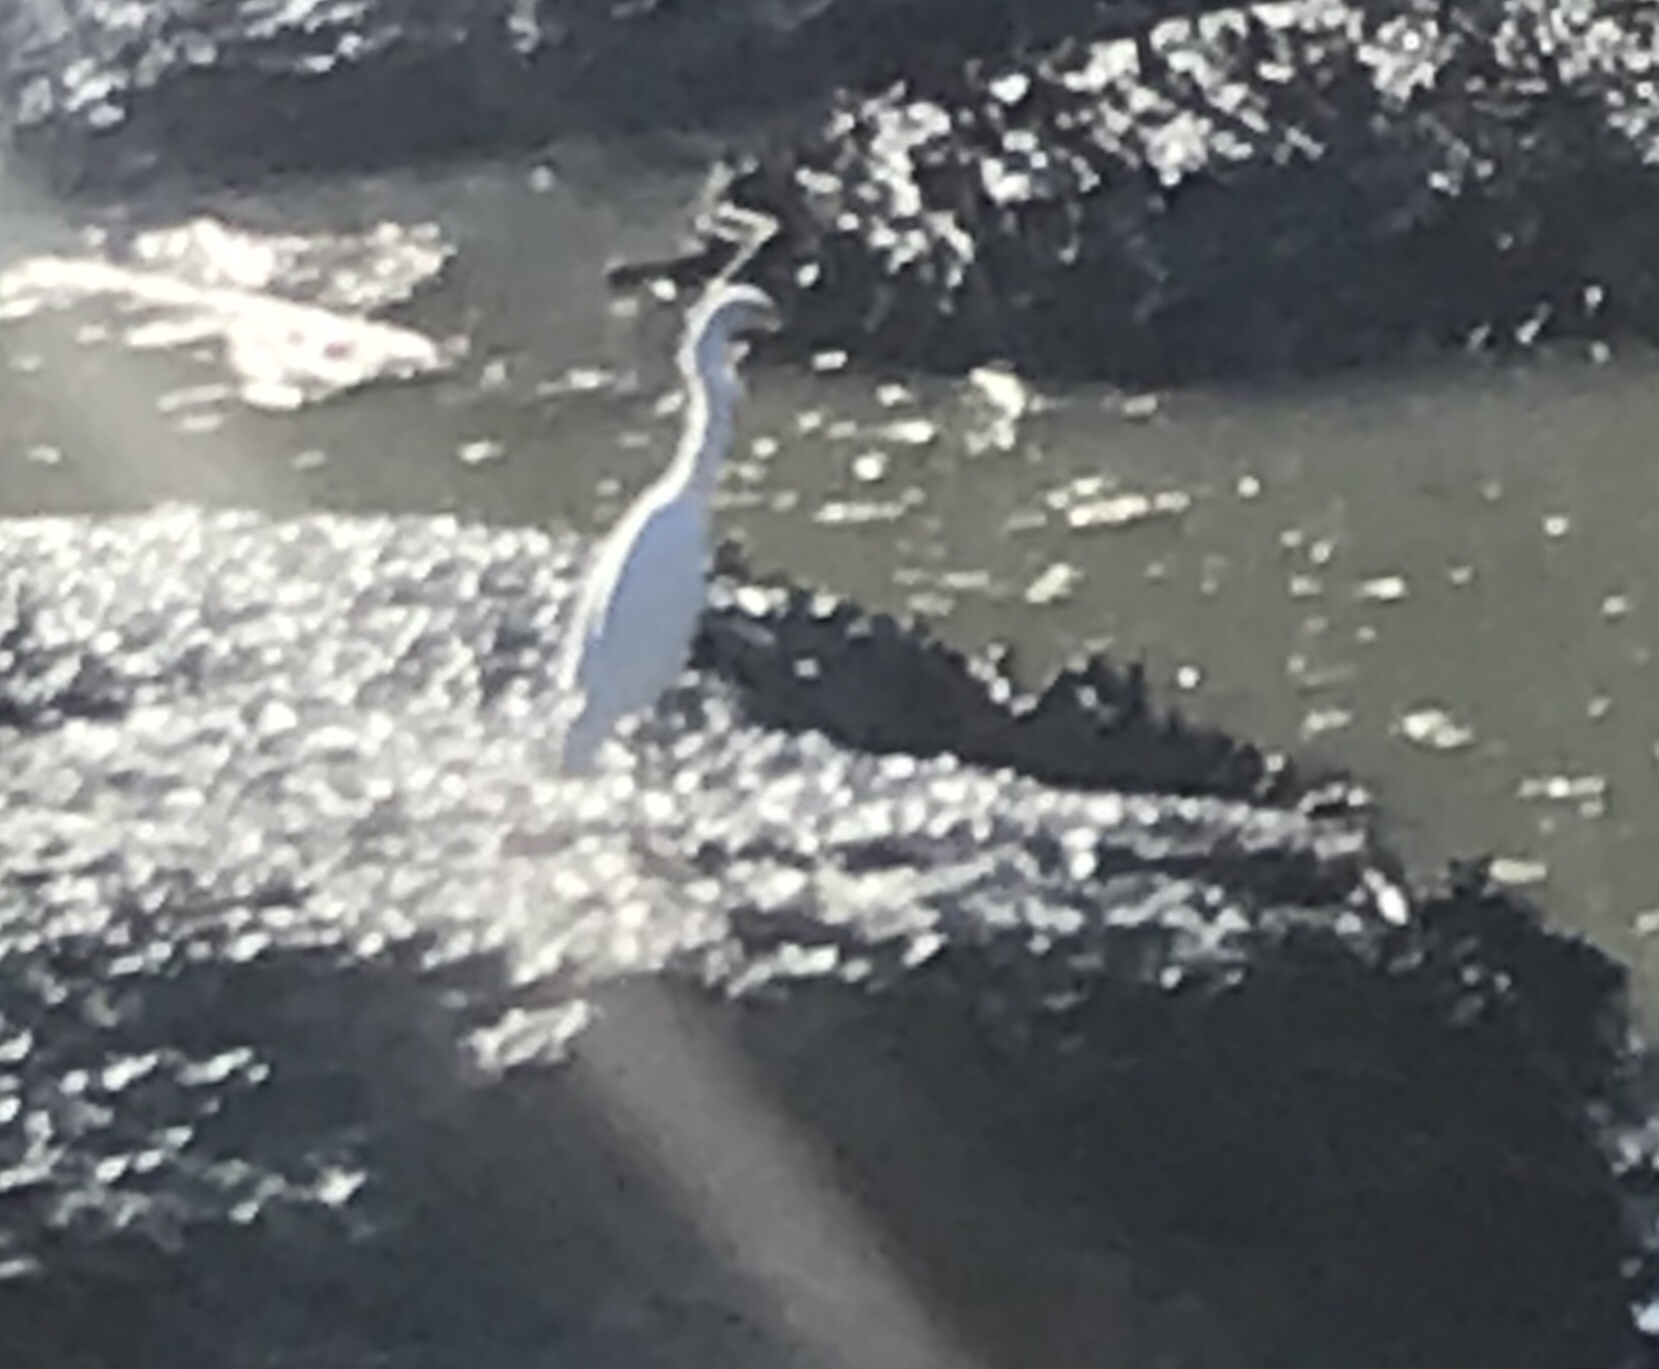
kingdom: Animalia
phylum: Chordata
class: Aves
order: Pelecaniformes
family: Ardeidae
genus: Egretta
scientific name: Egretta thula
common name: Snowy egret
